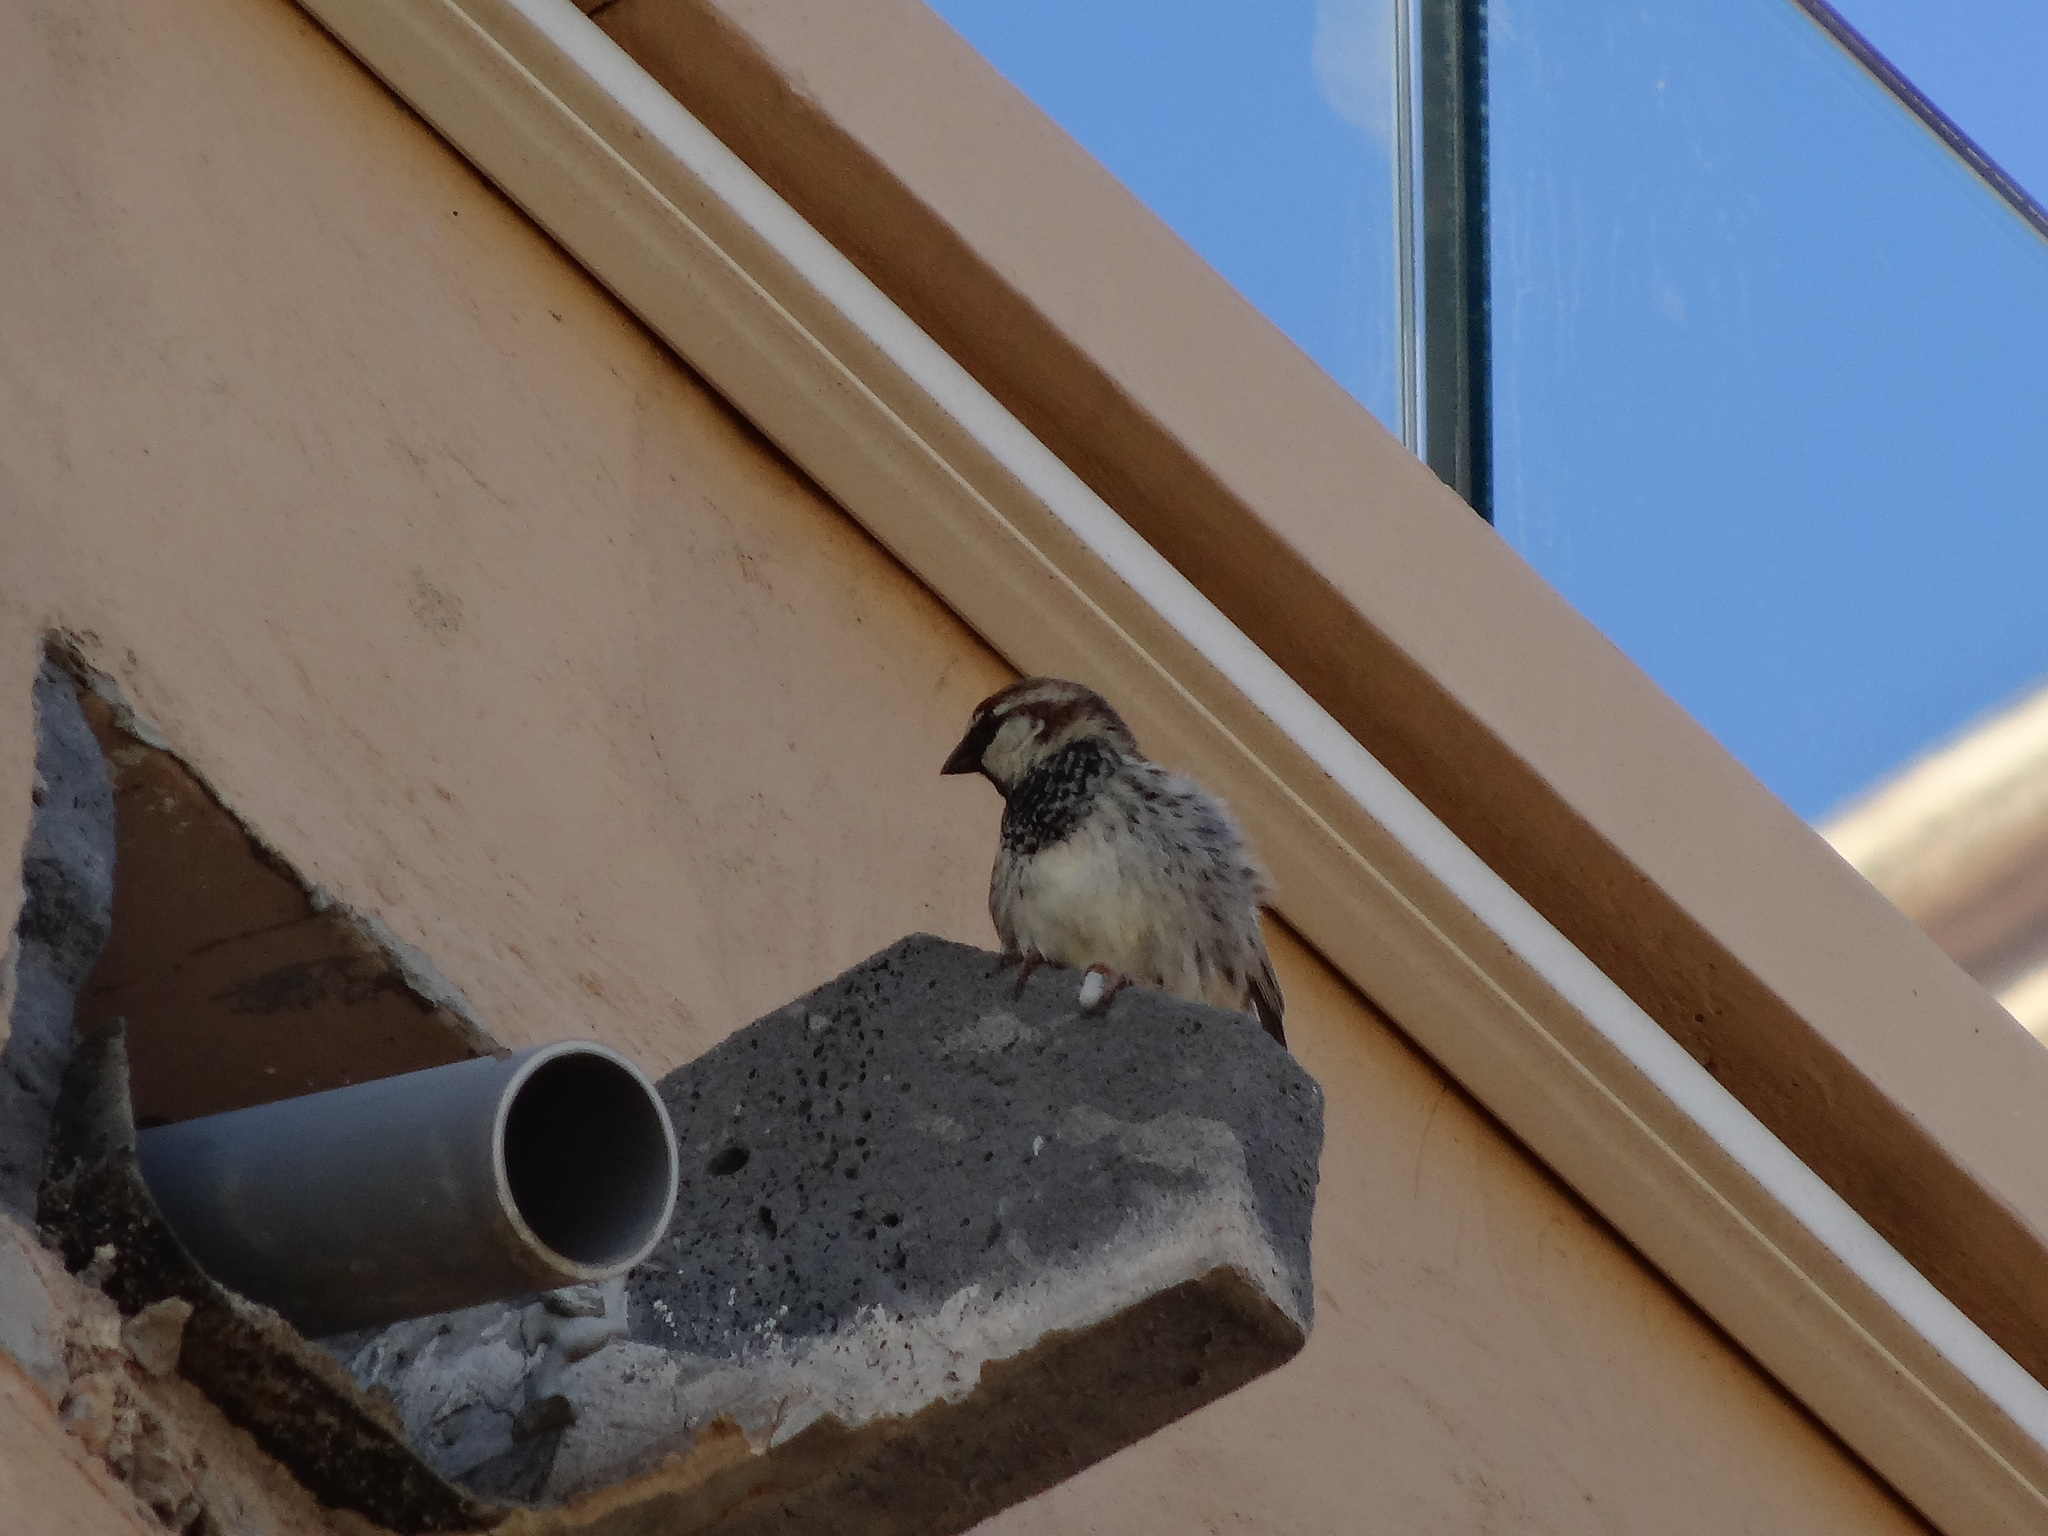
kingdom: Animalia
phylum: Chordata
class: Aves
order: Passeriformes
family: Passeridae
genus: Passer
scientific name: Passer hispaniolensis
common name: Spanish sparrow
